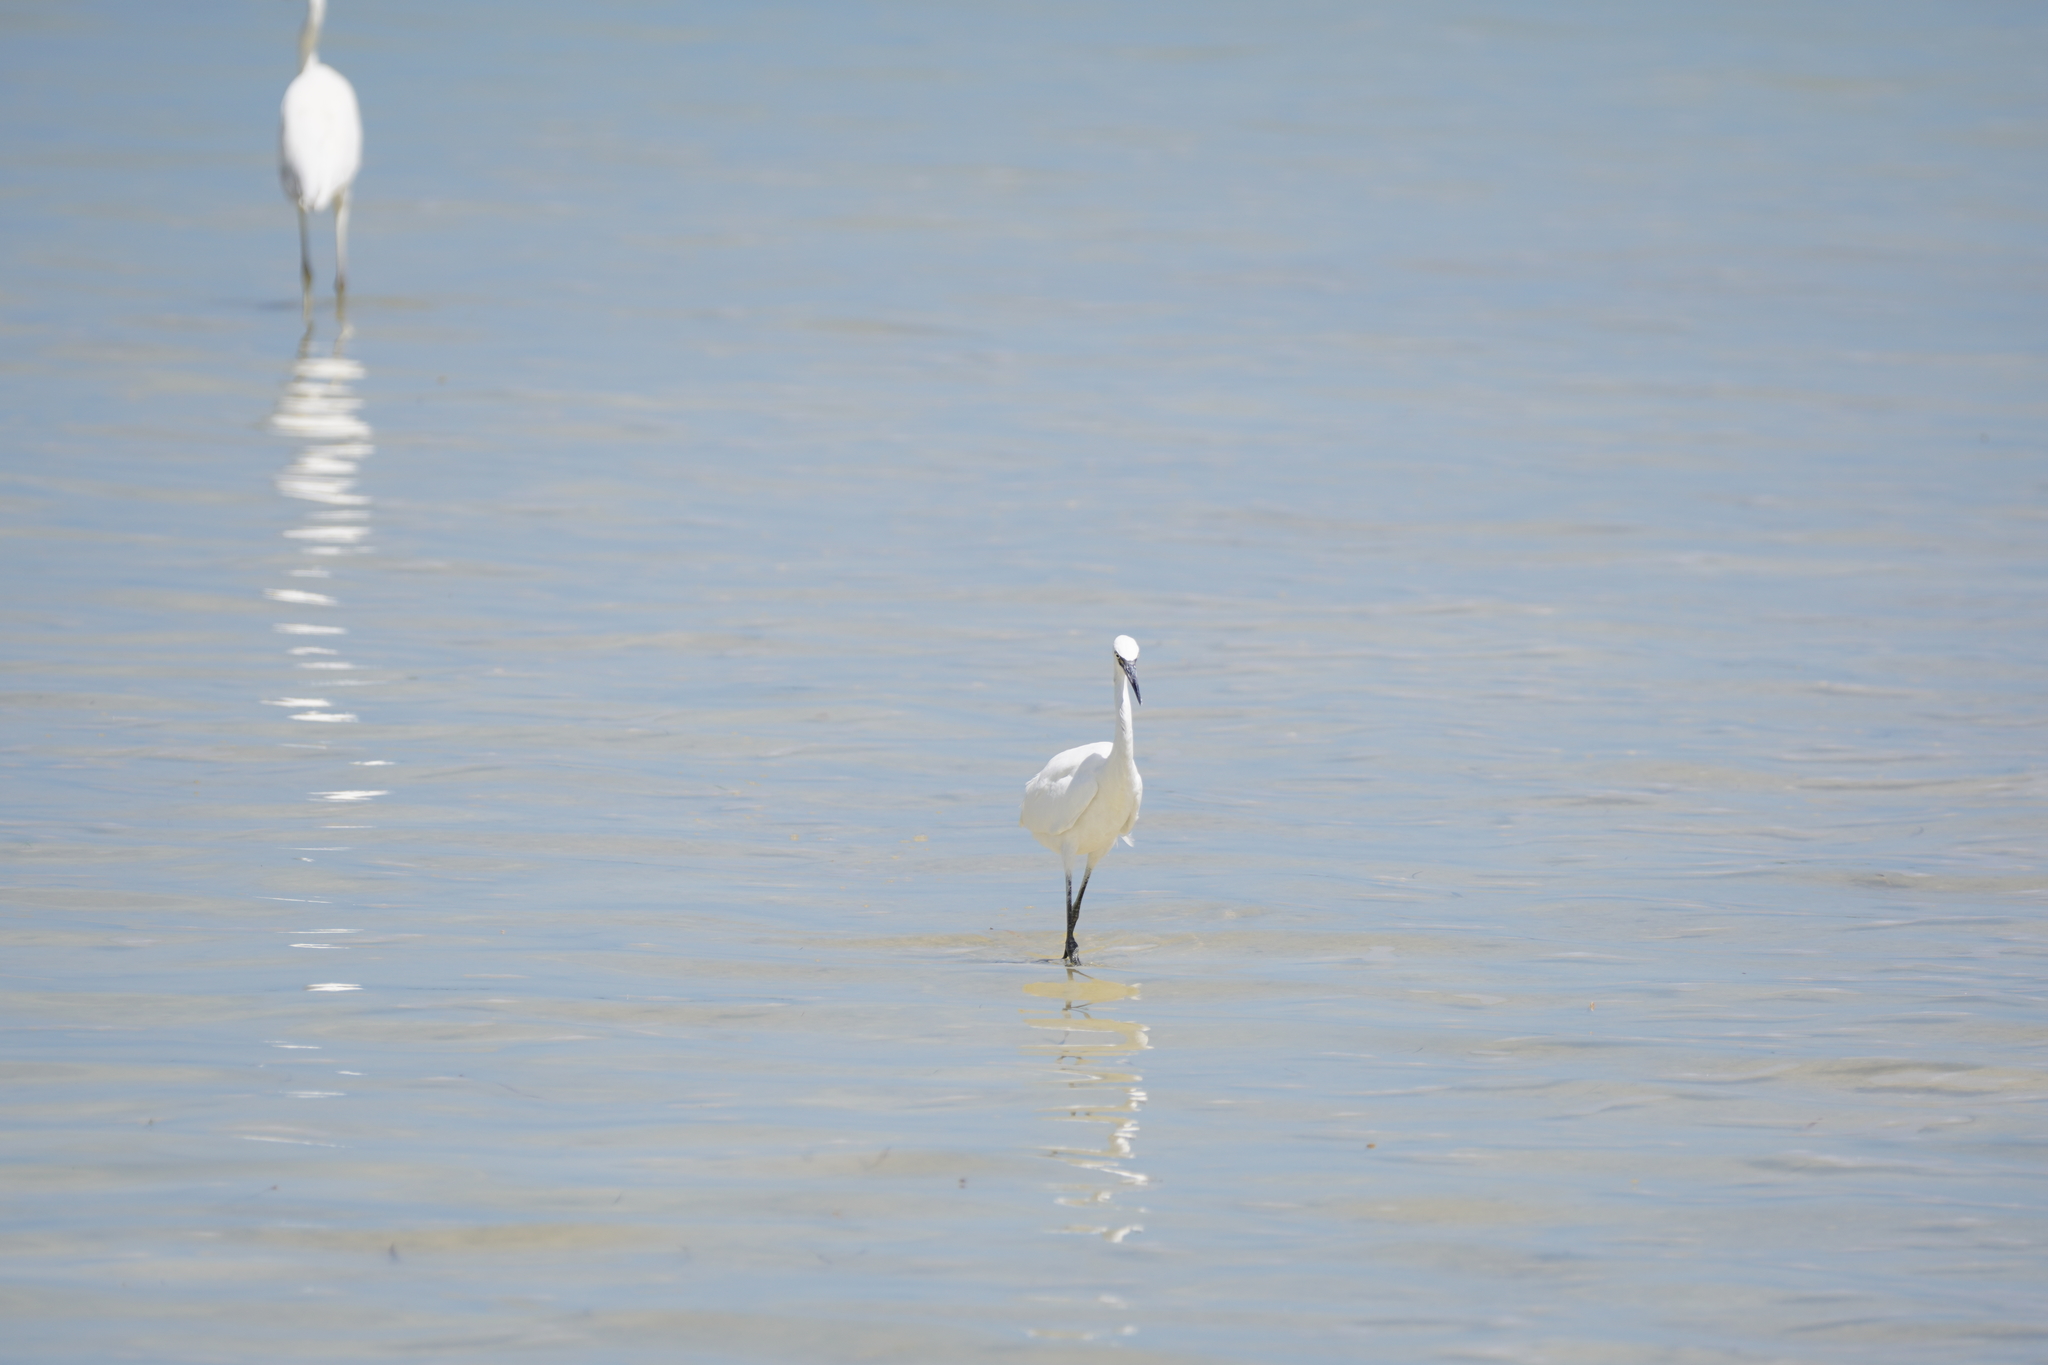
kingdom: Animalia
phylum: Chordata
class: Aves
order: Pelecaniformes
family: Ardeidae
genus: Egretta
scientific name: Egretta rufescens
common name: Reddish egret
